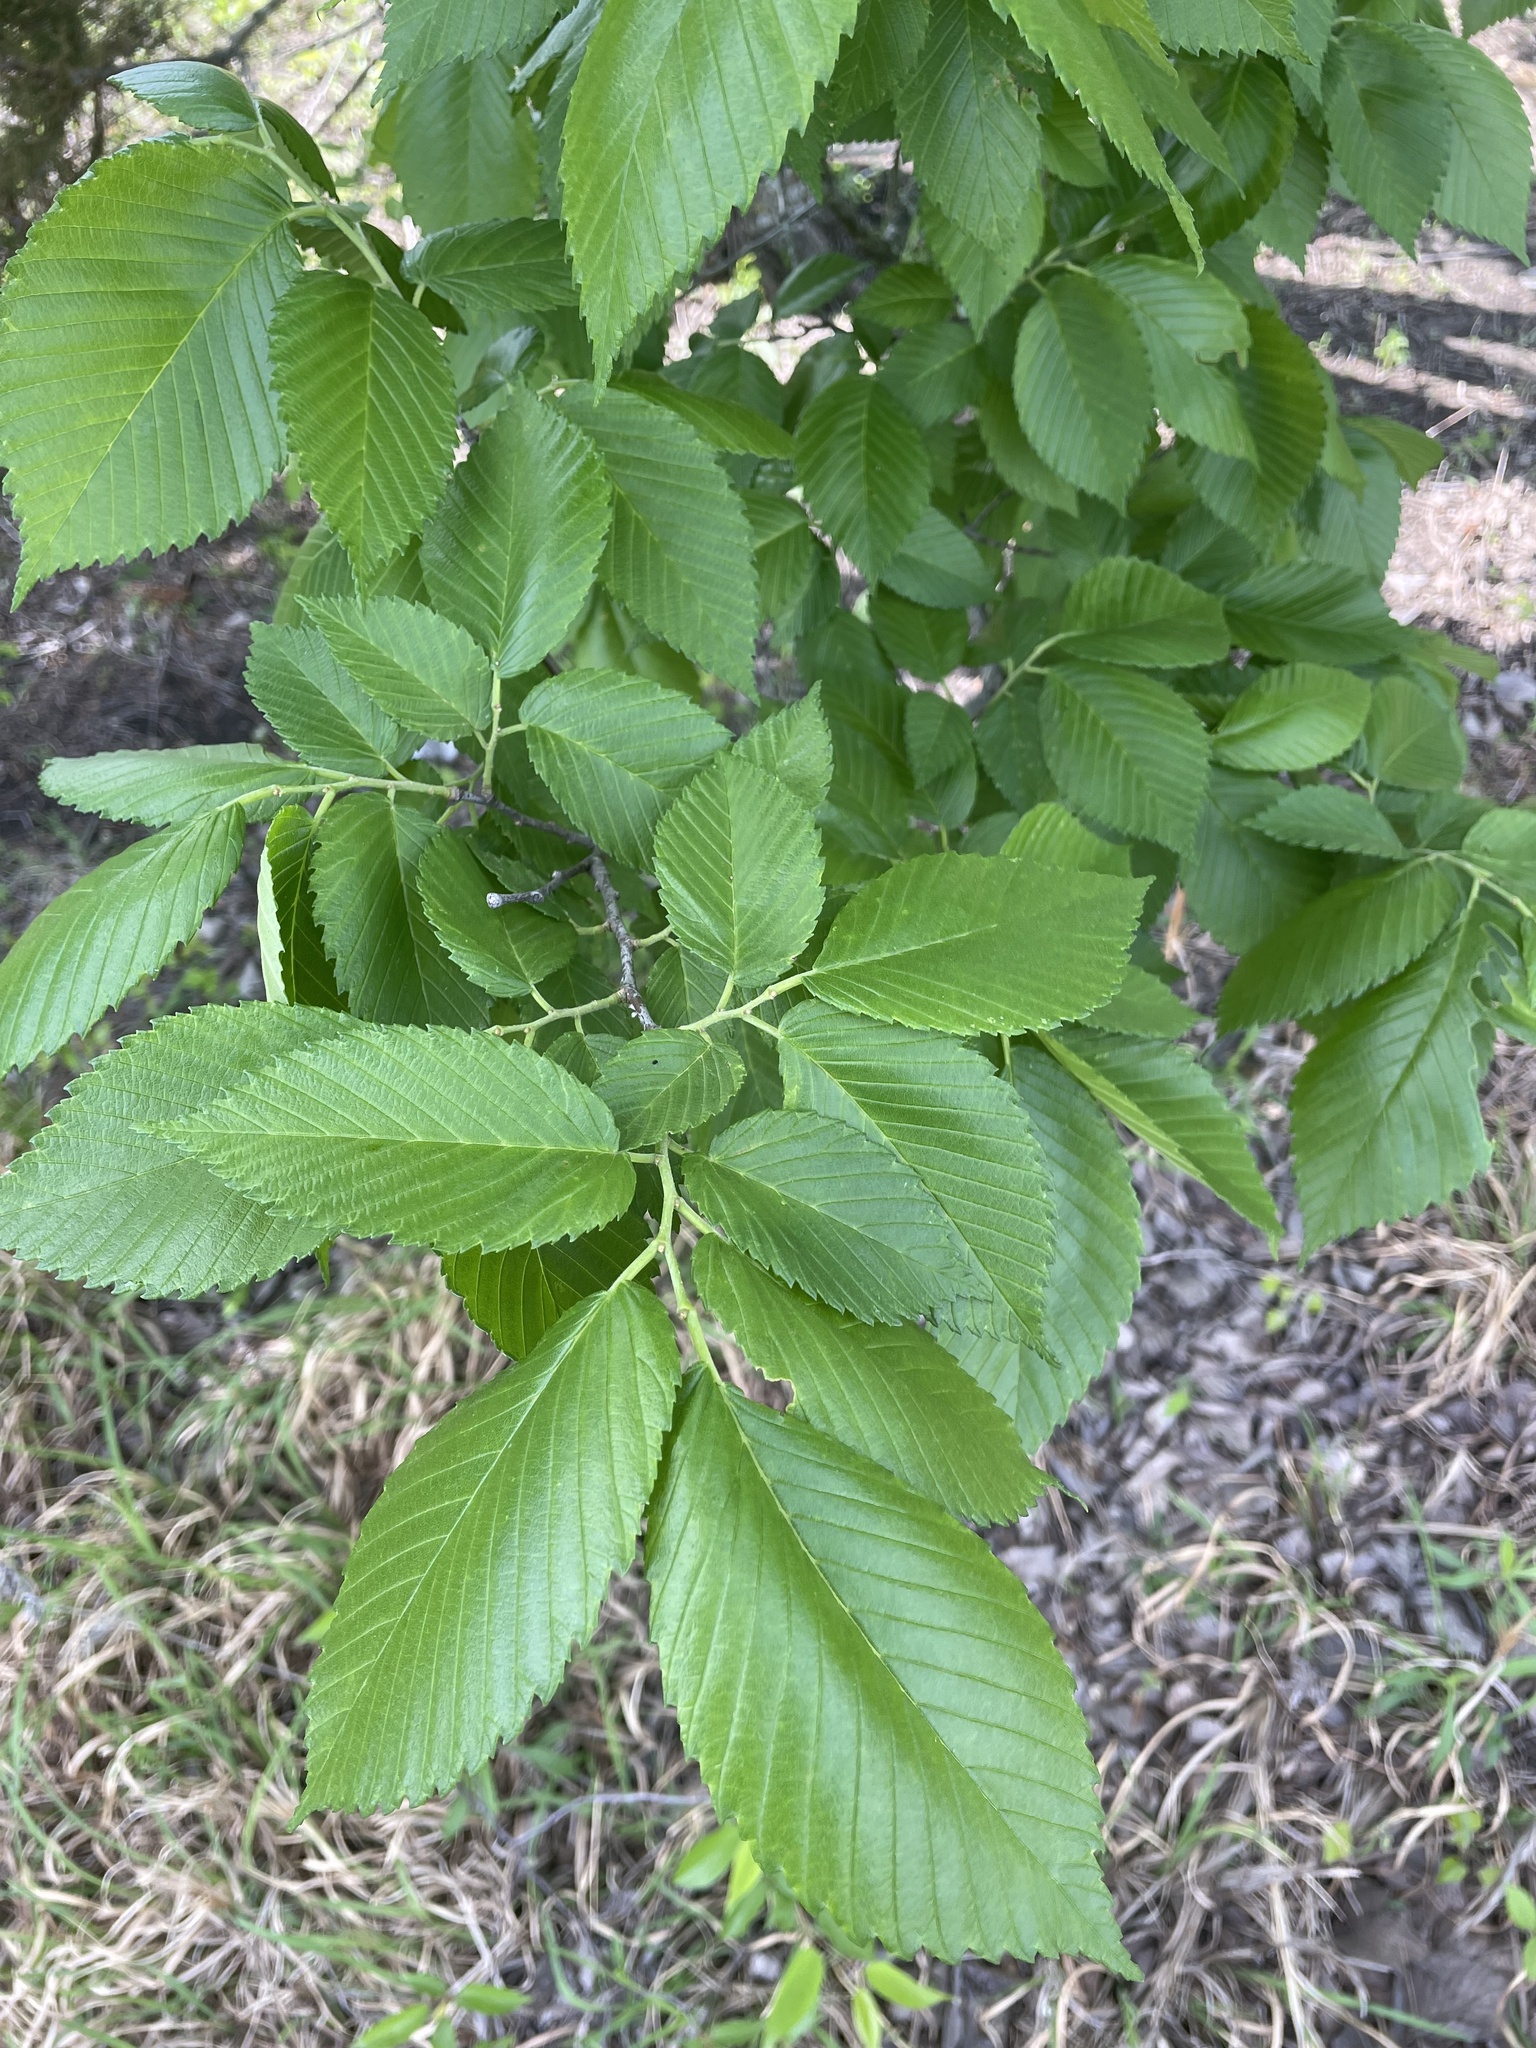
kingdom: Plantae
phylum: Tracheophyta
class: Magnoliopsida
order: Rosales
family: Ulmaceae
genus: Ulmus
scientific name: Ulmus americana
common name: American elm
